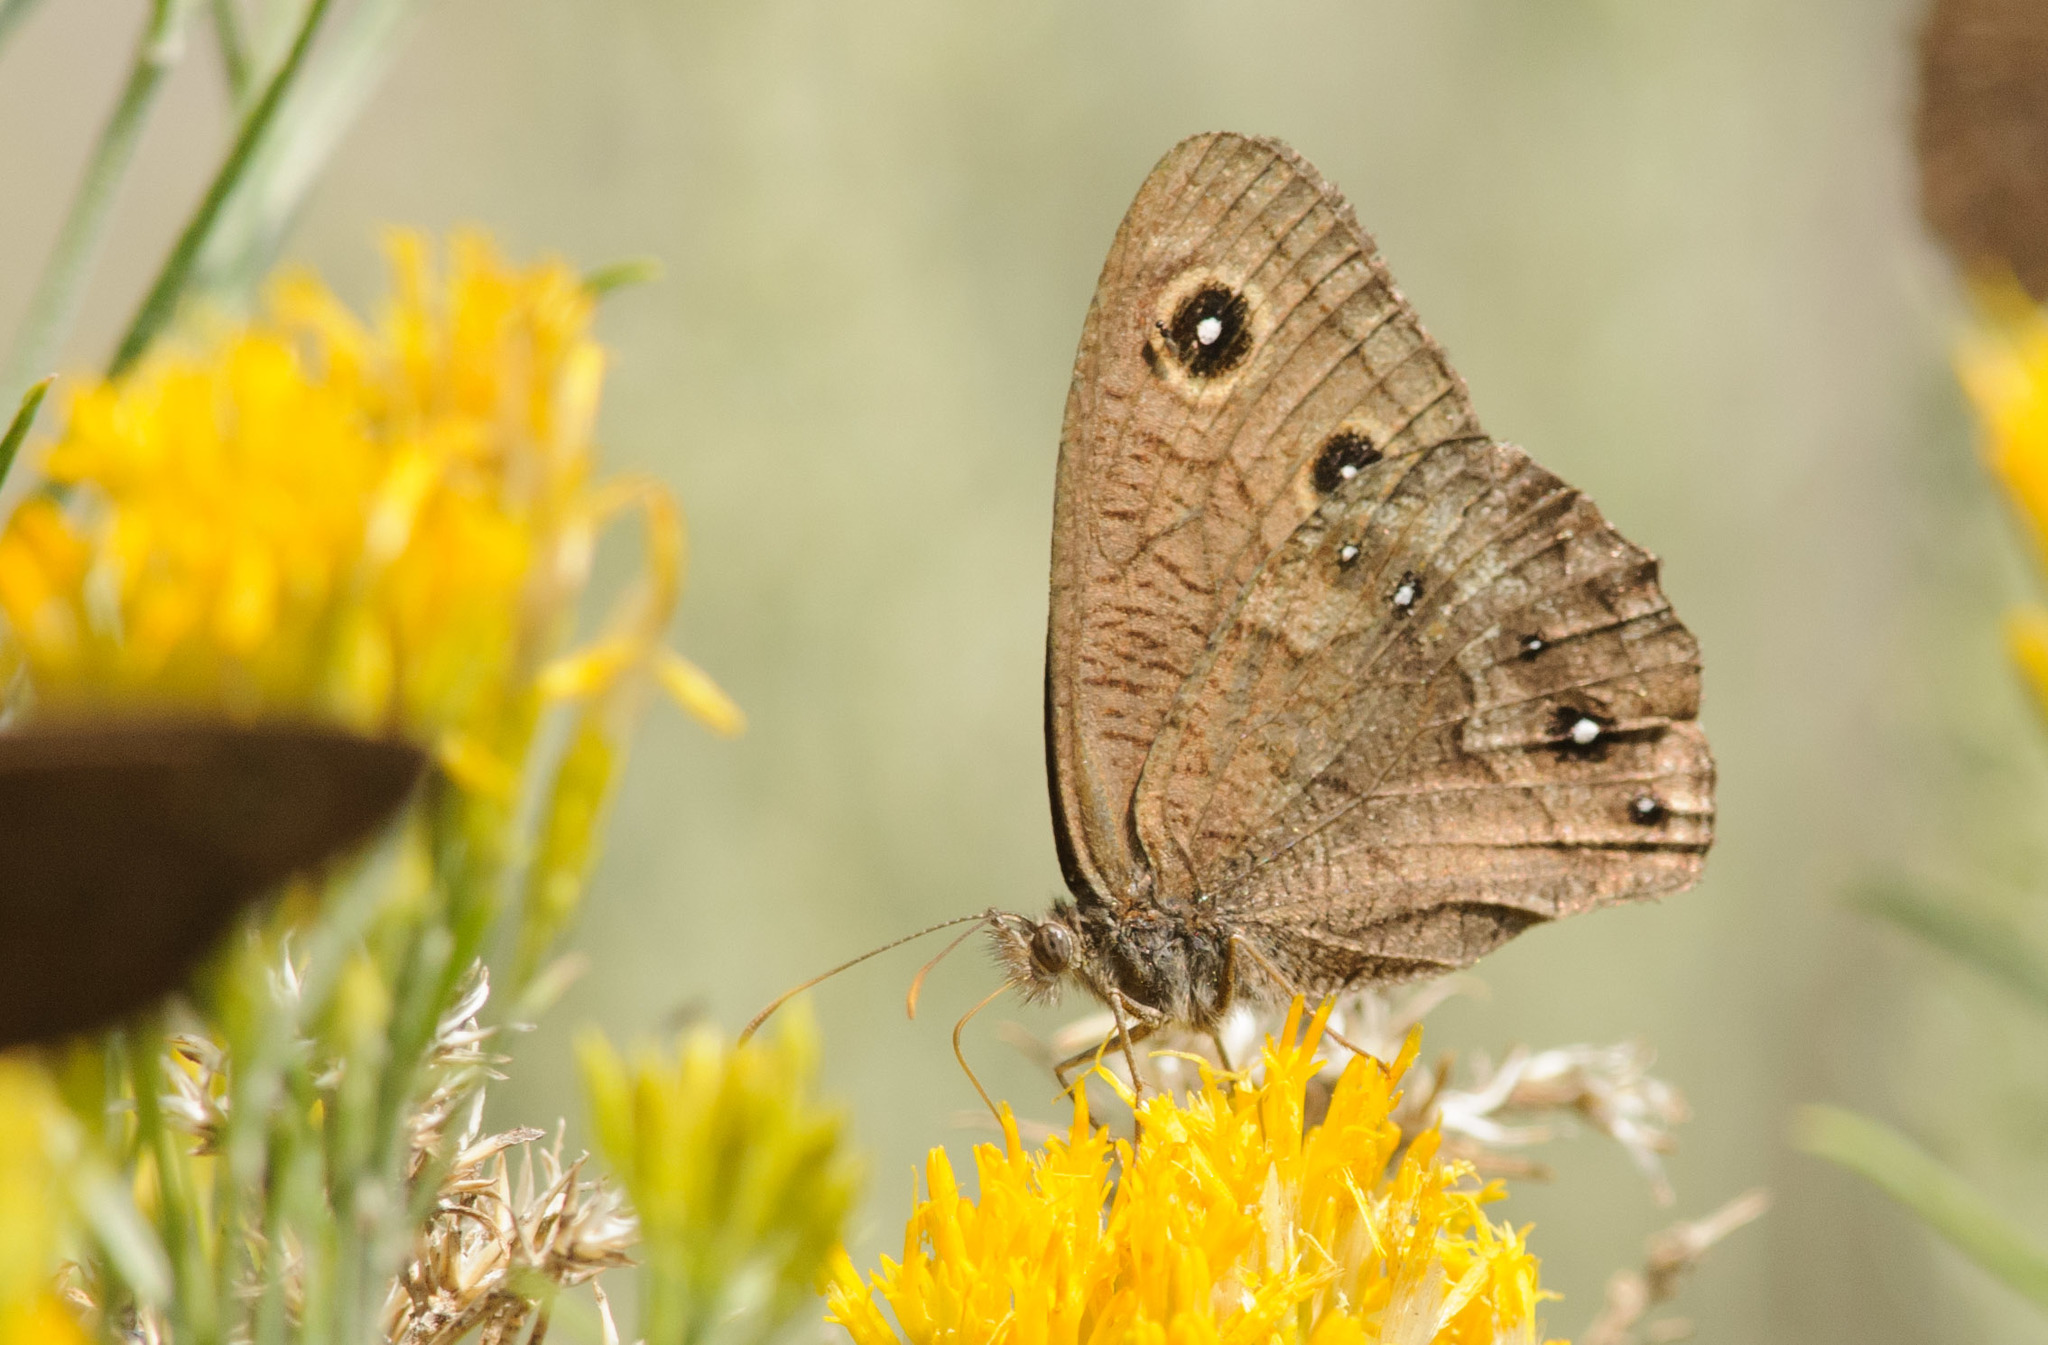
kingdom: Animalia
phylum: Arthropoda
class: Insecta
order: Lepidoptera
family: Nymphalidae
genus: Cercyonis
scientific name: Cercyonis sthenele
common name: Great basin wood-nymph
